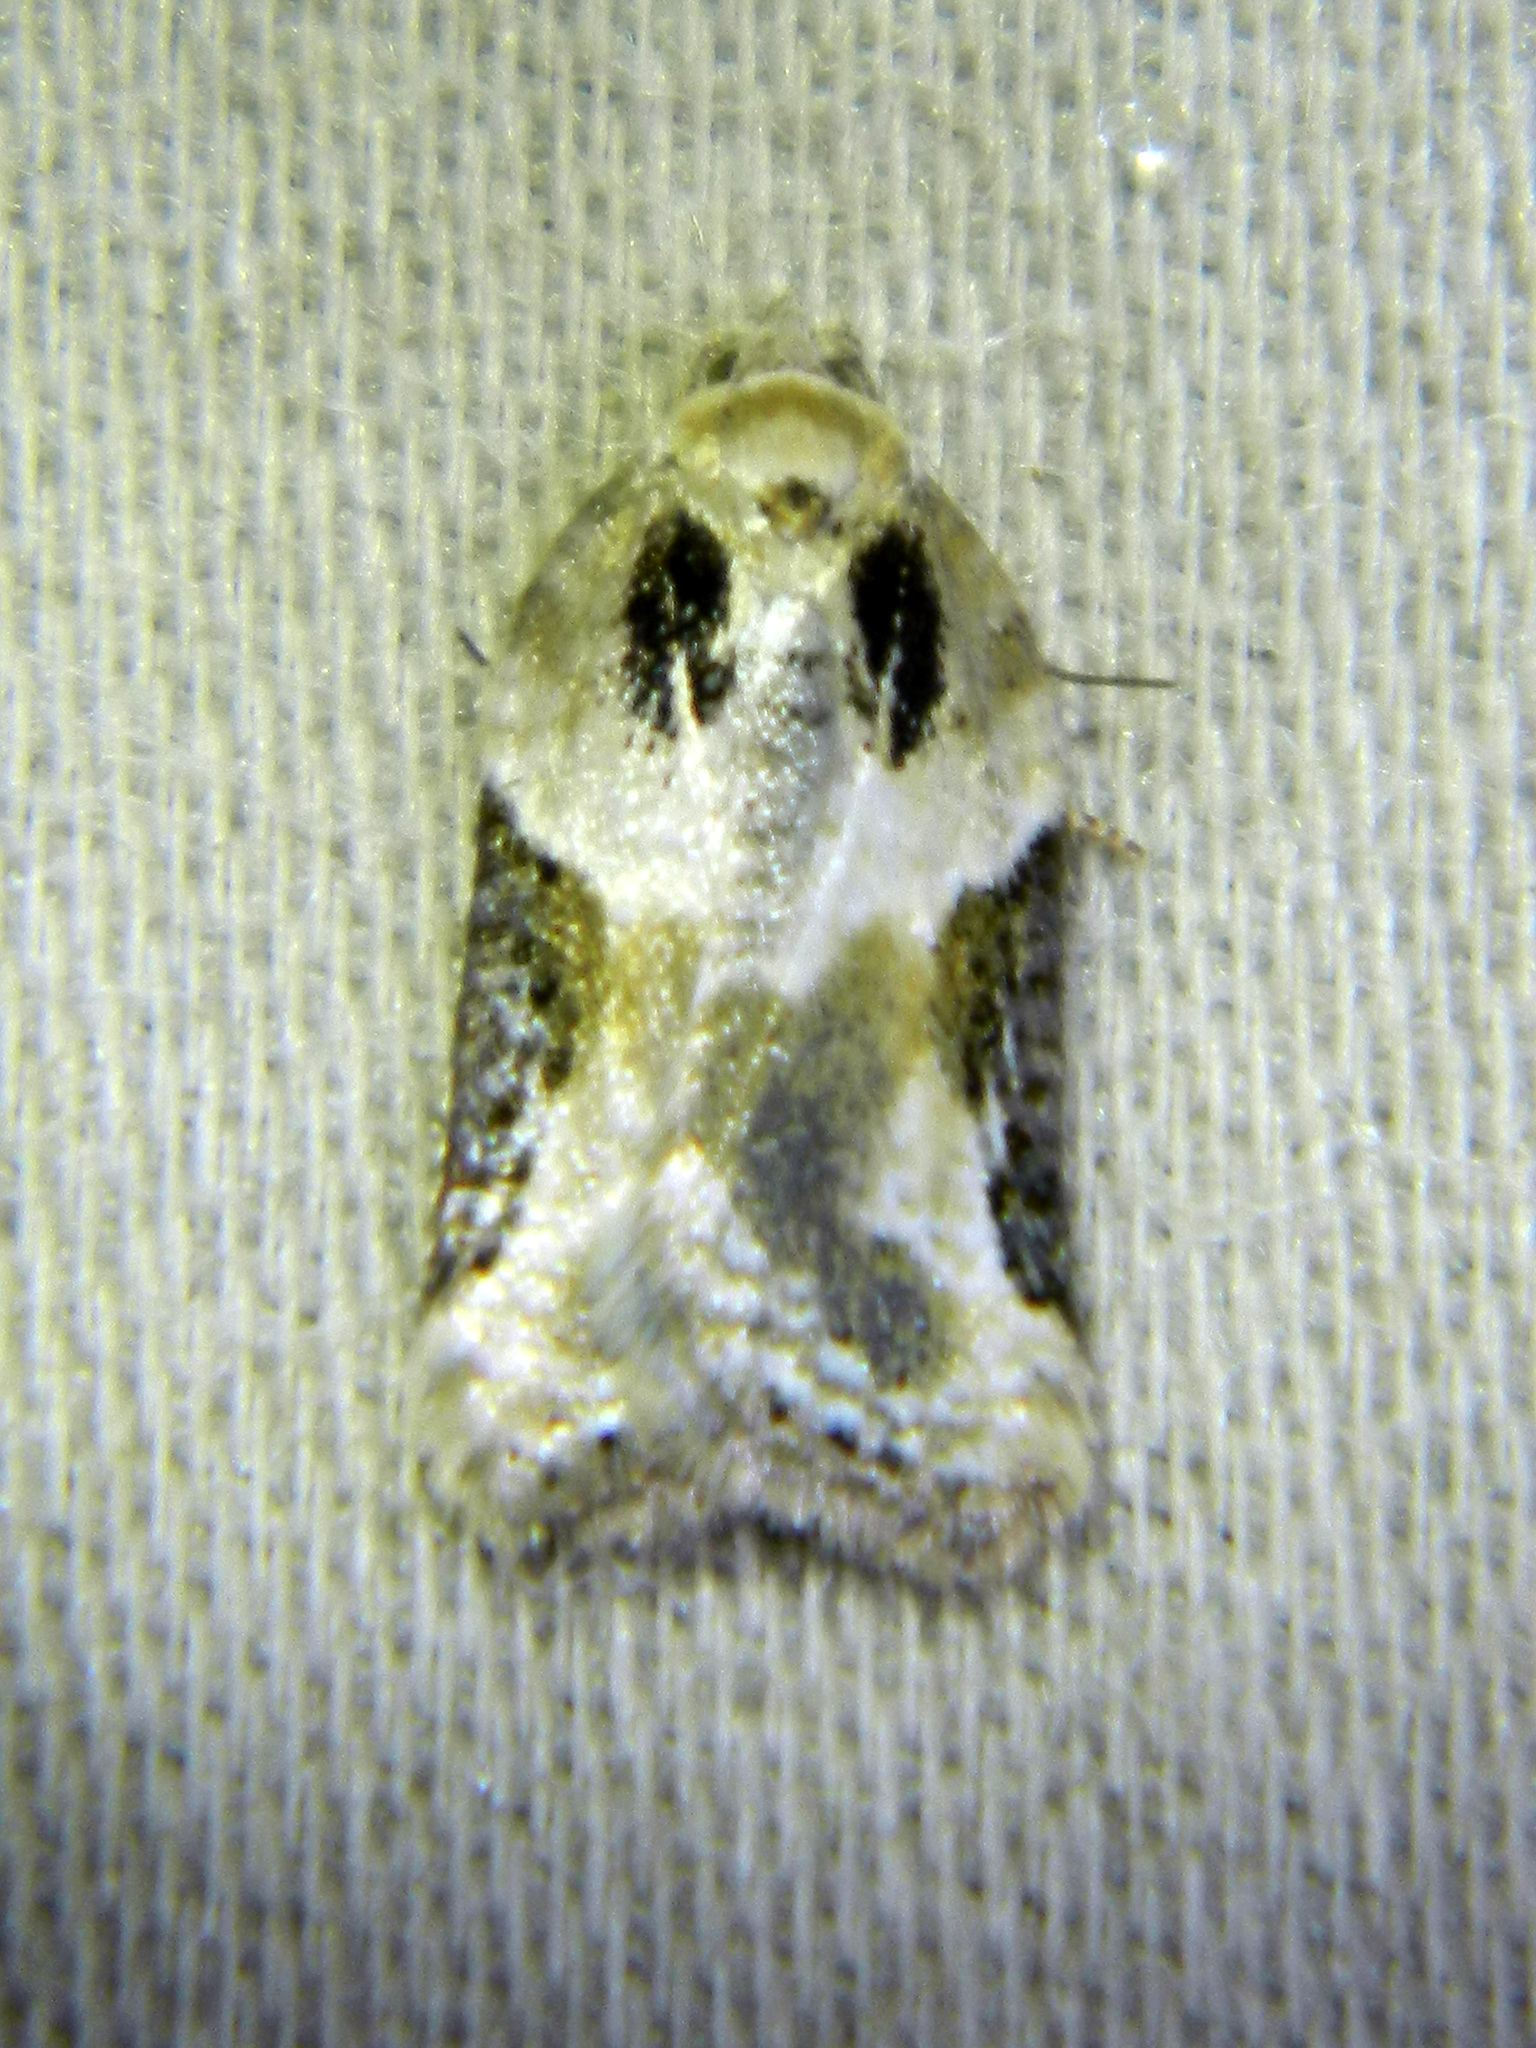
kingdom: Animalia
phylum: Arthropoda
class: Insecta
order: Lepidoptera
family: Tortricidae
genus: Acleris
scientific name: Acleris forbesana
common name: Forbes' acleris moth
